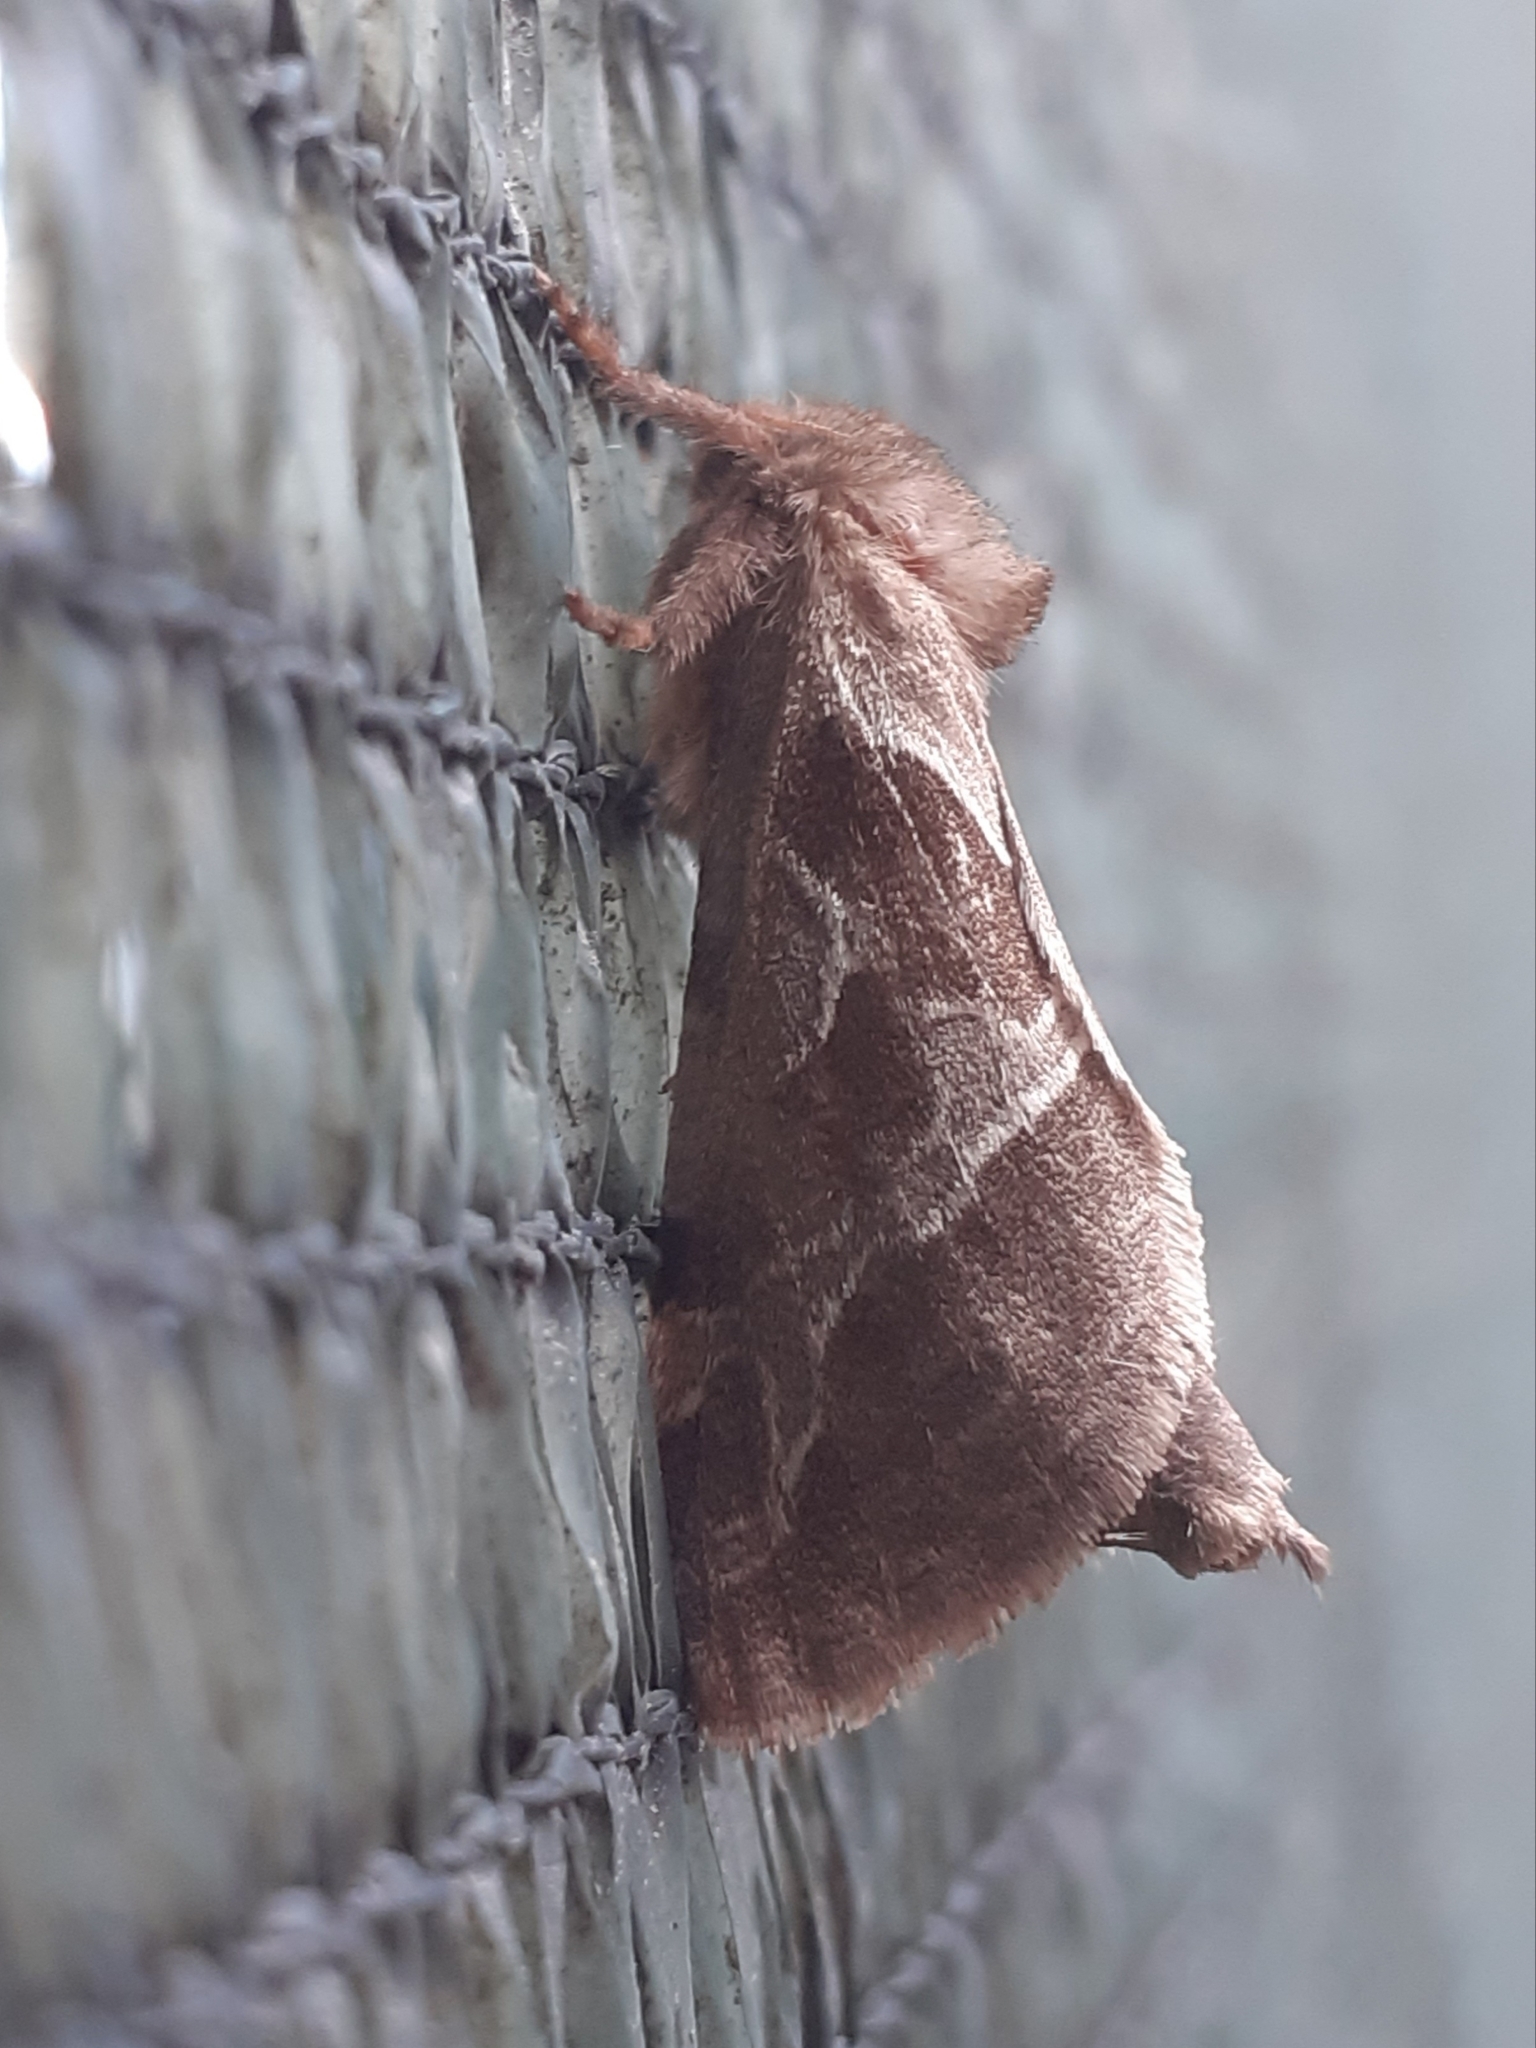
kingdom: Animalia
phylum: Arthropoda
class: Insecta
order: Lepidoptera
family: Hepialidae
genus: Triodia
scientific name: Triodia sylvina
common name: Orange swift
